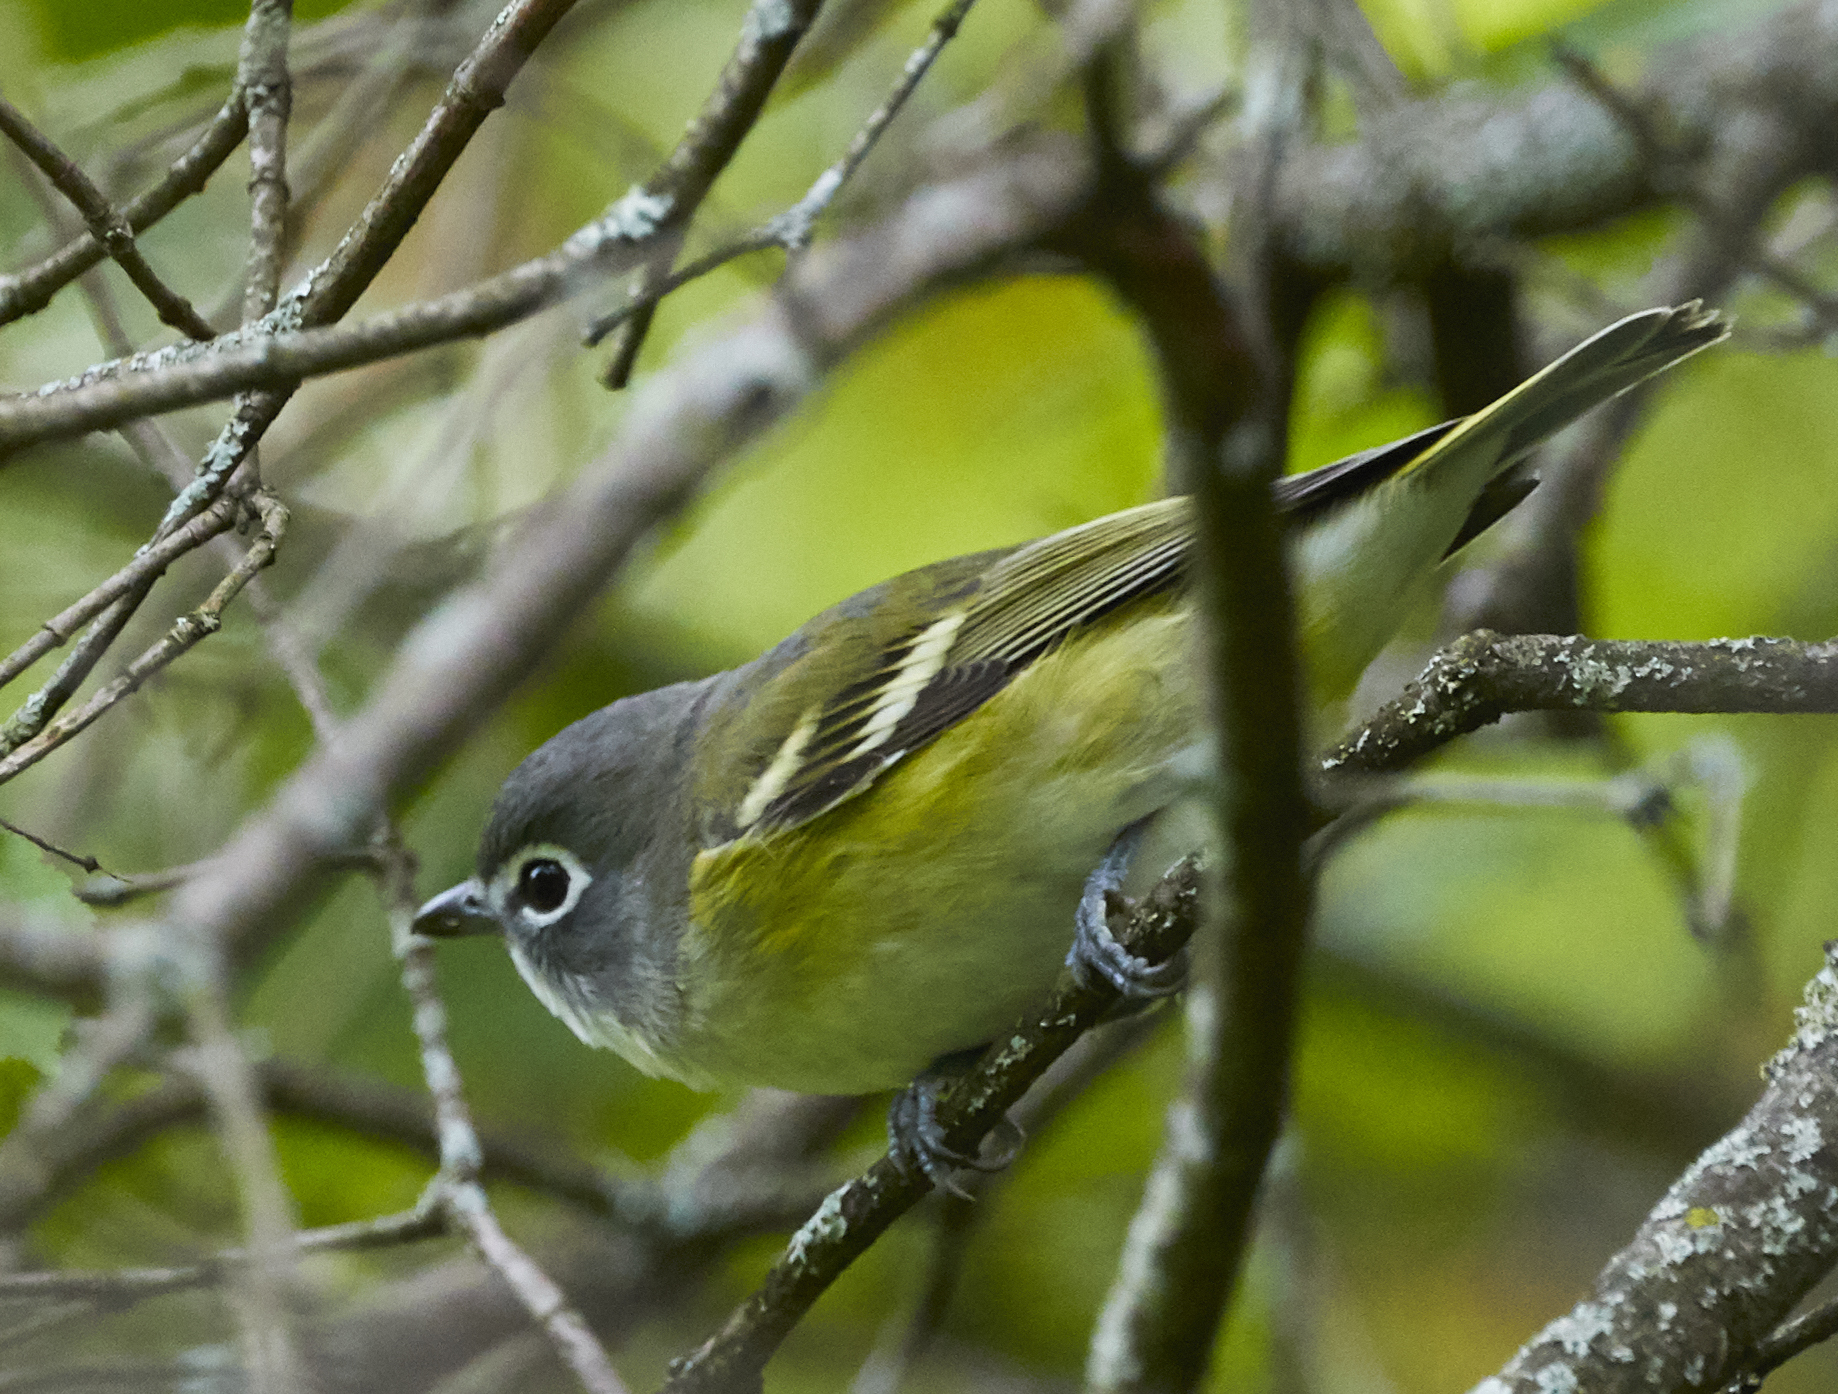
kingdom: Animalia
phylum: Chordata
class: Aves
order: Passeriformes
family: Vireonidae
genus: Vireo
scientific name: Vireo solitarius
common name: Blue-headed vireo
